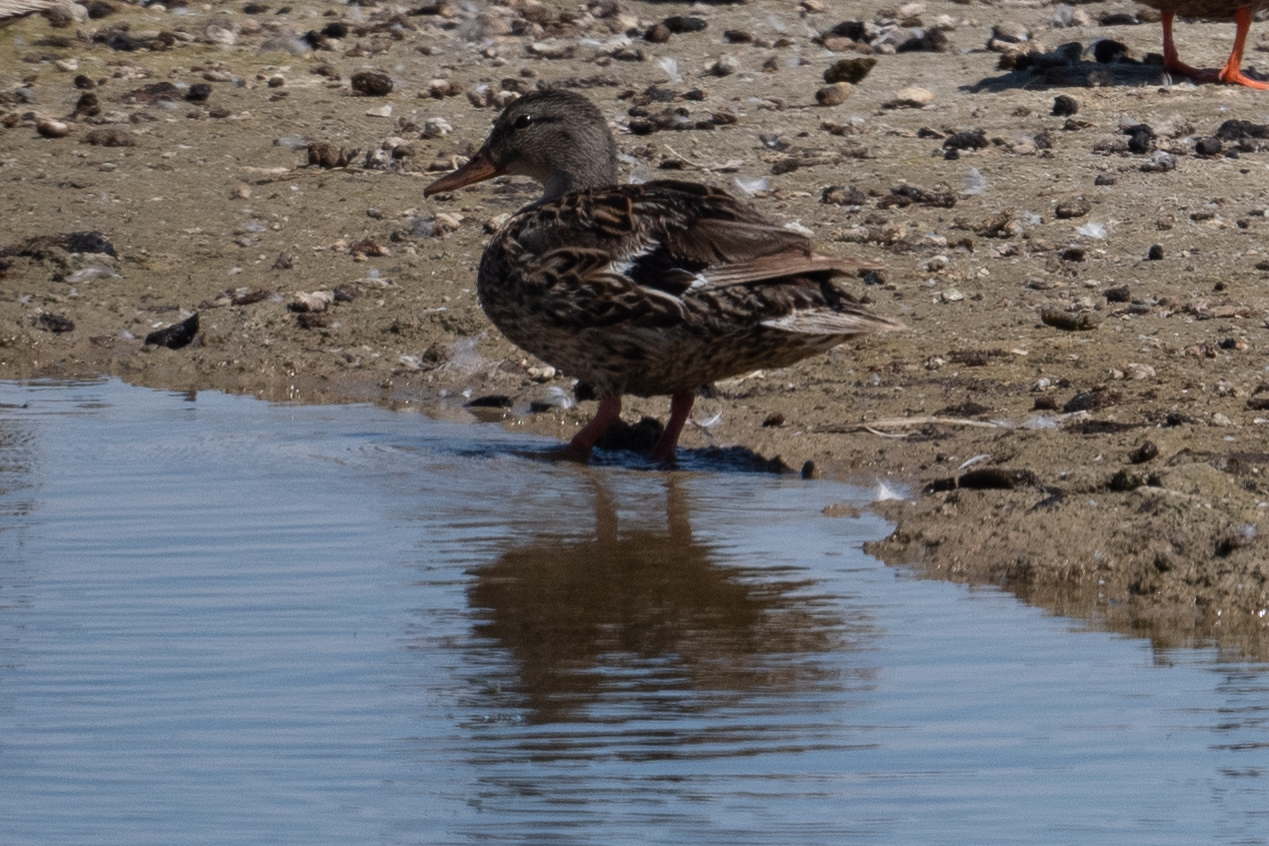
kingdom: Animalia
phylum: Chordata
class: Aves
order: Anseriformes
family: Anatidae
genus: Anas
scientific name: Anas platyrhynchos
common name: Mallard
